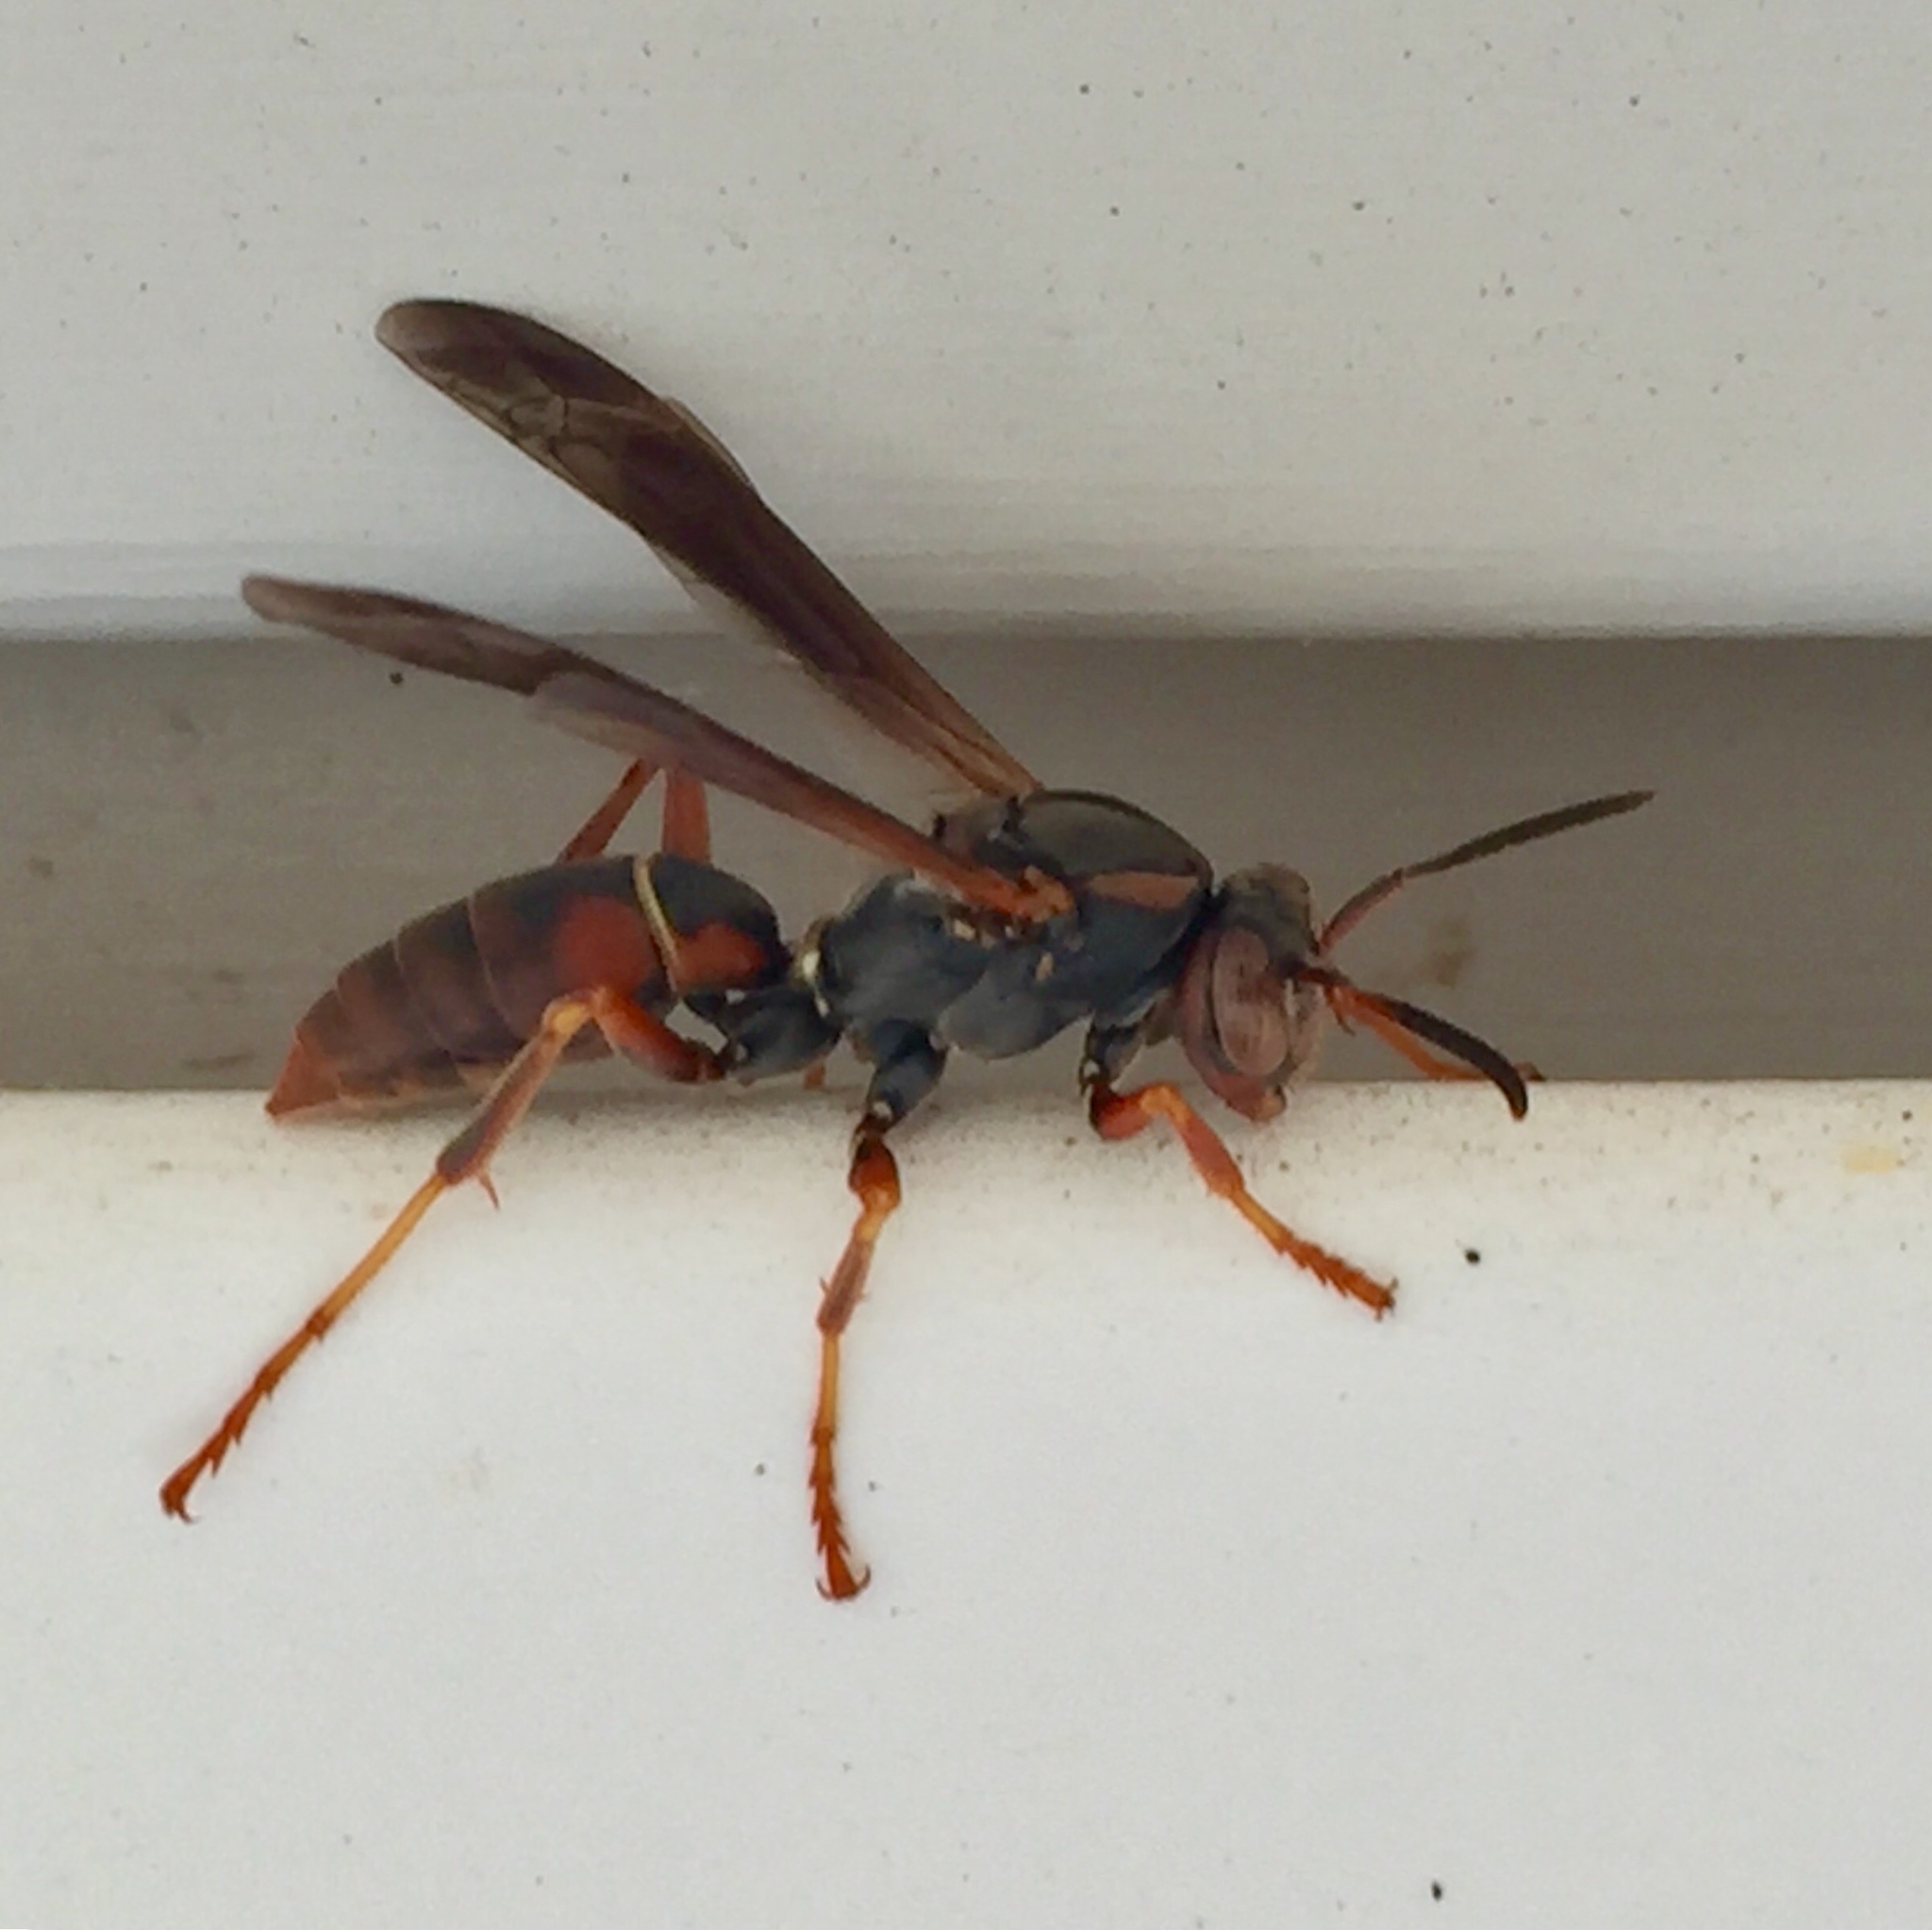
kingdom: Animalia
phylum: Arthropoda
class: Insecta
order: Hymenoptera
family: Eumenidae
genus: Polistes
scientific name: Polistes fuscatus
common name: Dark paper wasp
